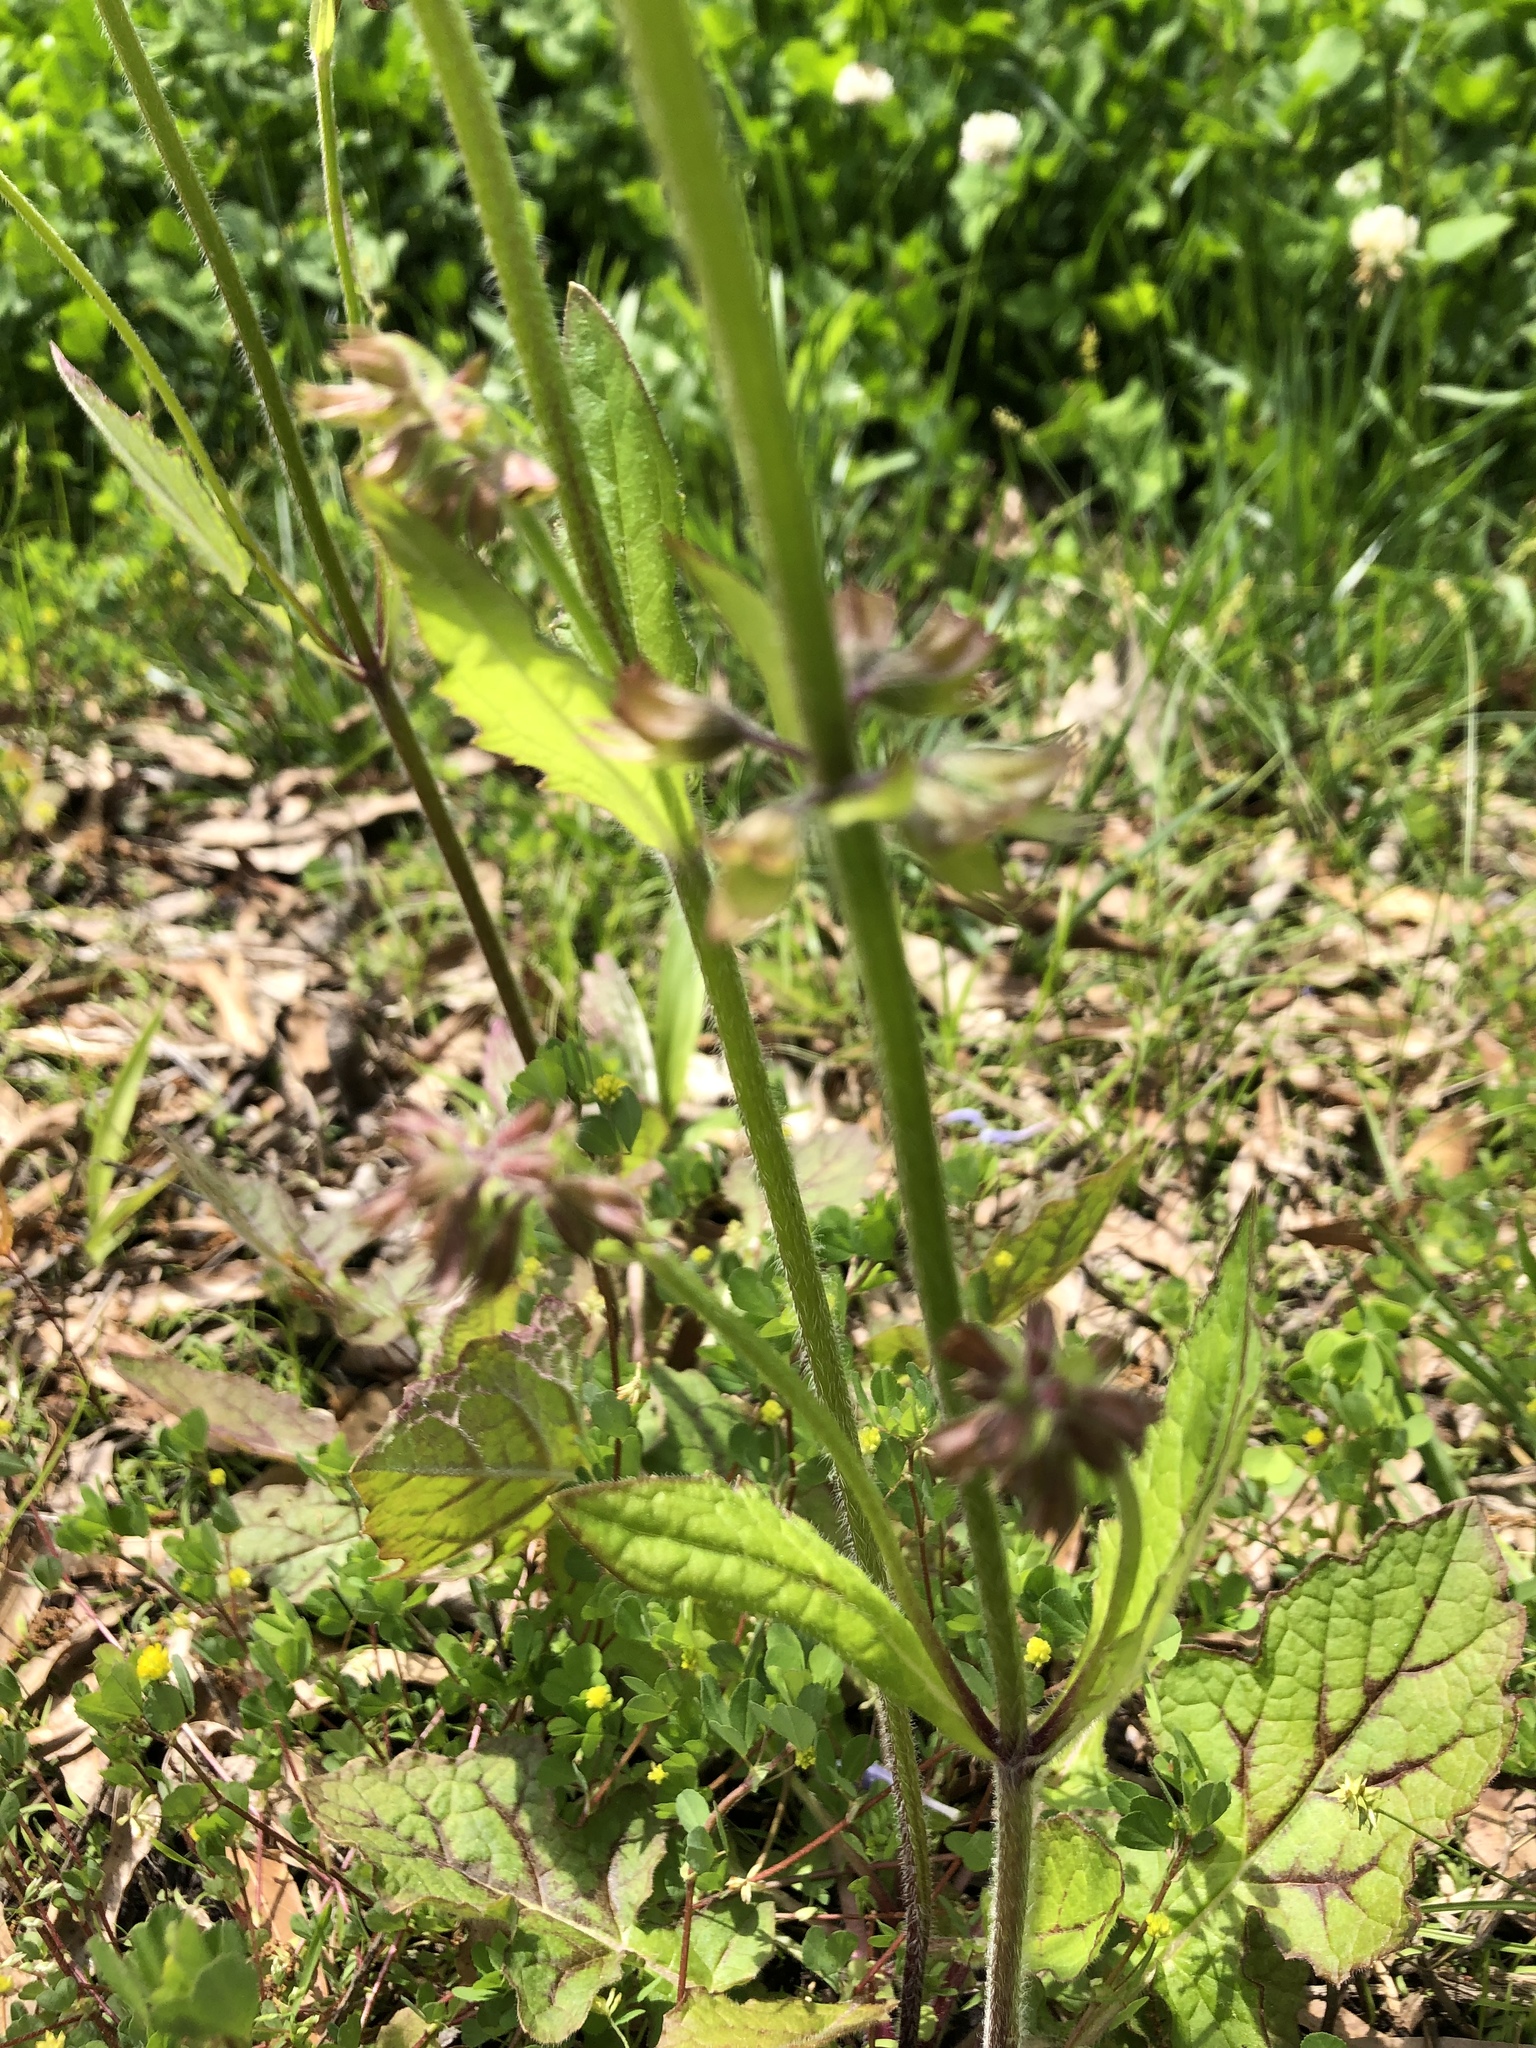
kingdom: Plantae
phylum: Tracheophyta
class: Magnoliopsida
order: Lamiales
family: Lamiaceae
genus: Salvia
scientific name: Salvia lyrata
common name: Cancerweed
